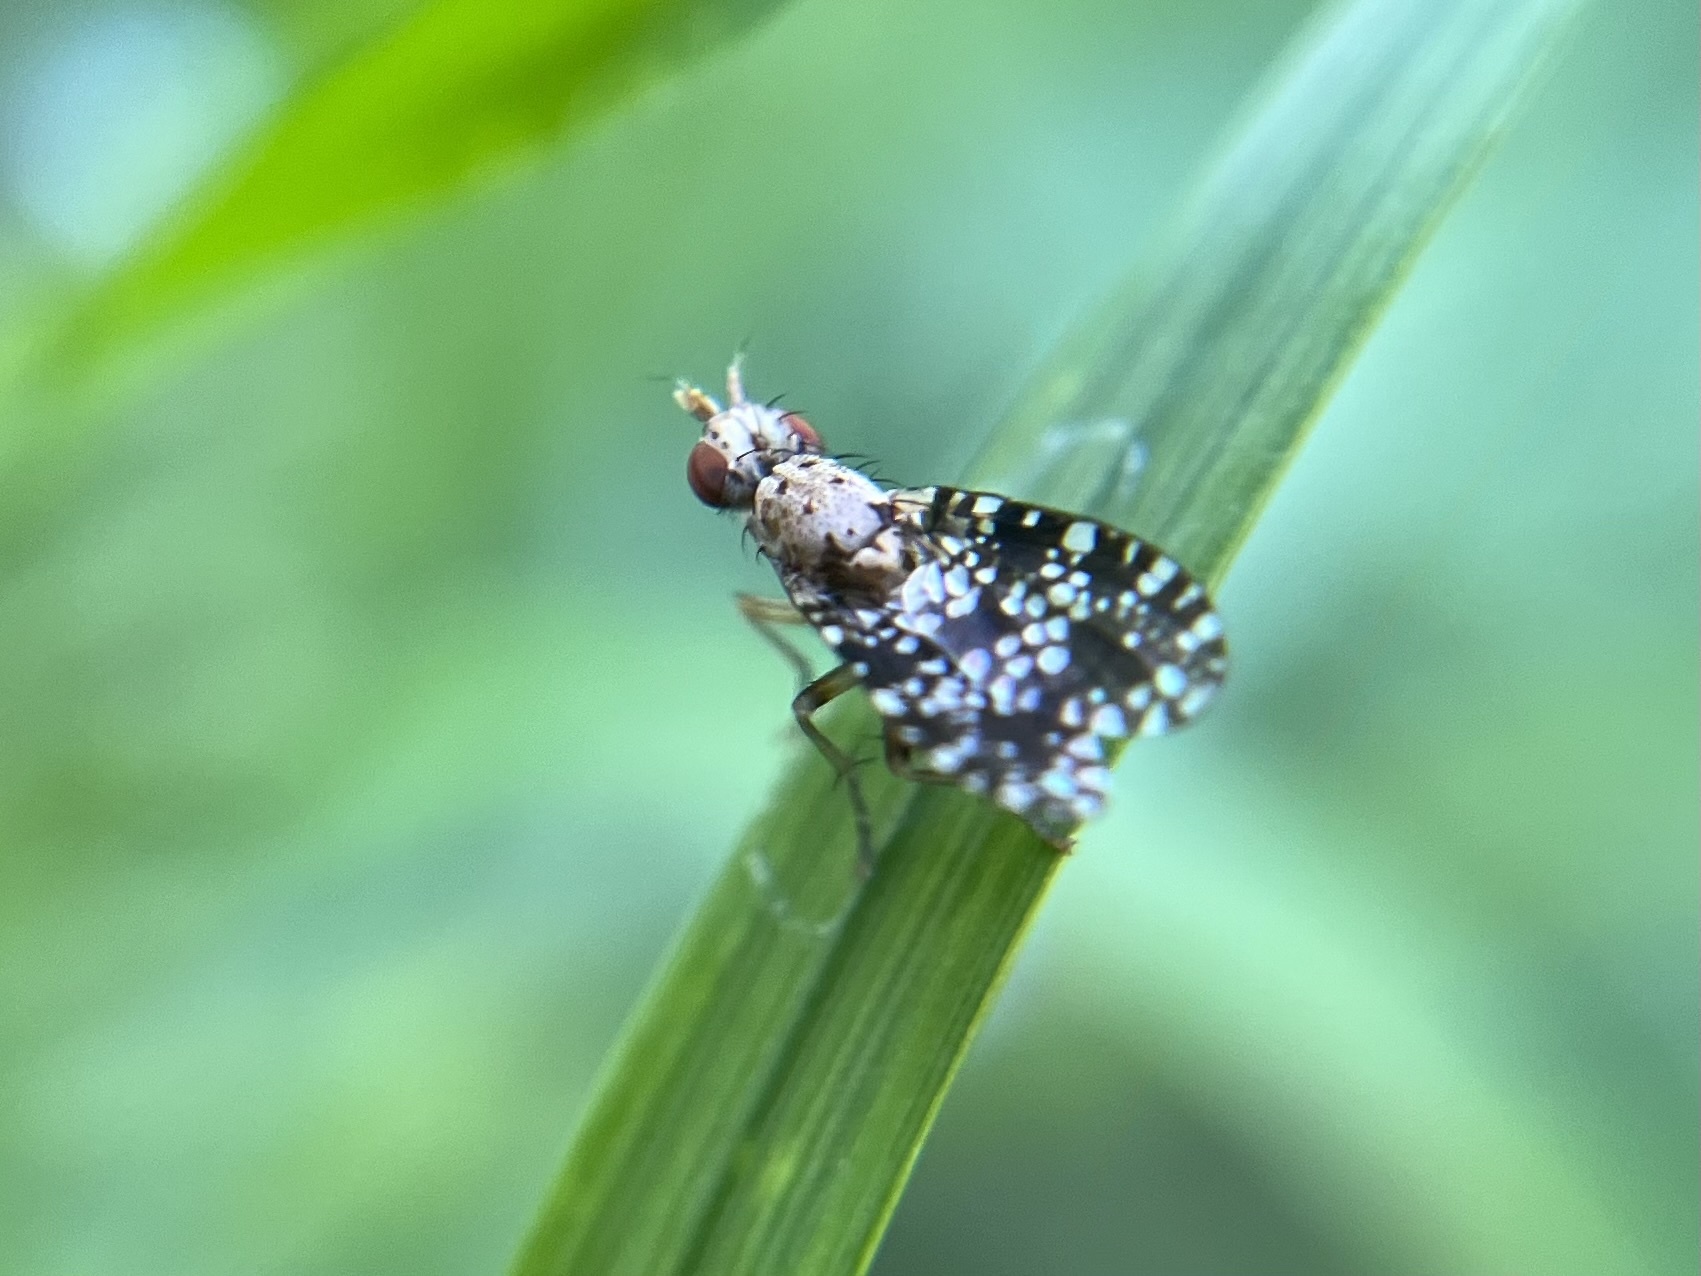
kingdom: Animalia
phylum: Arthropoda
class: Insecta
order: Diptera
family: Sciomyzidae
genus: Trypetoptera
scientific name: Trypetoptera punctulata
